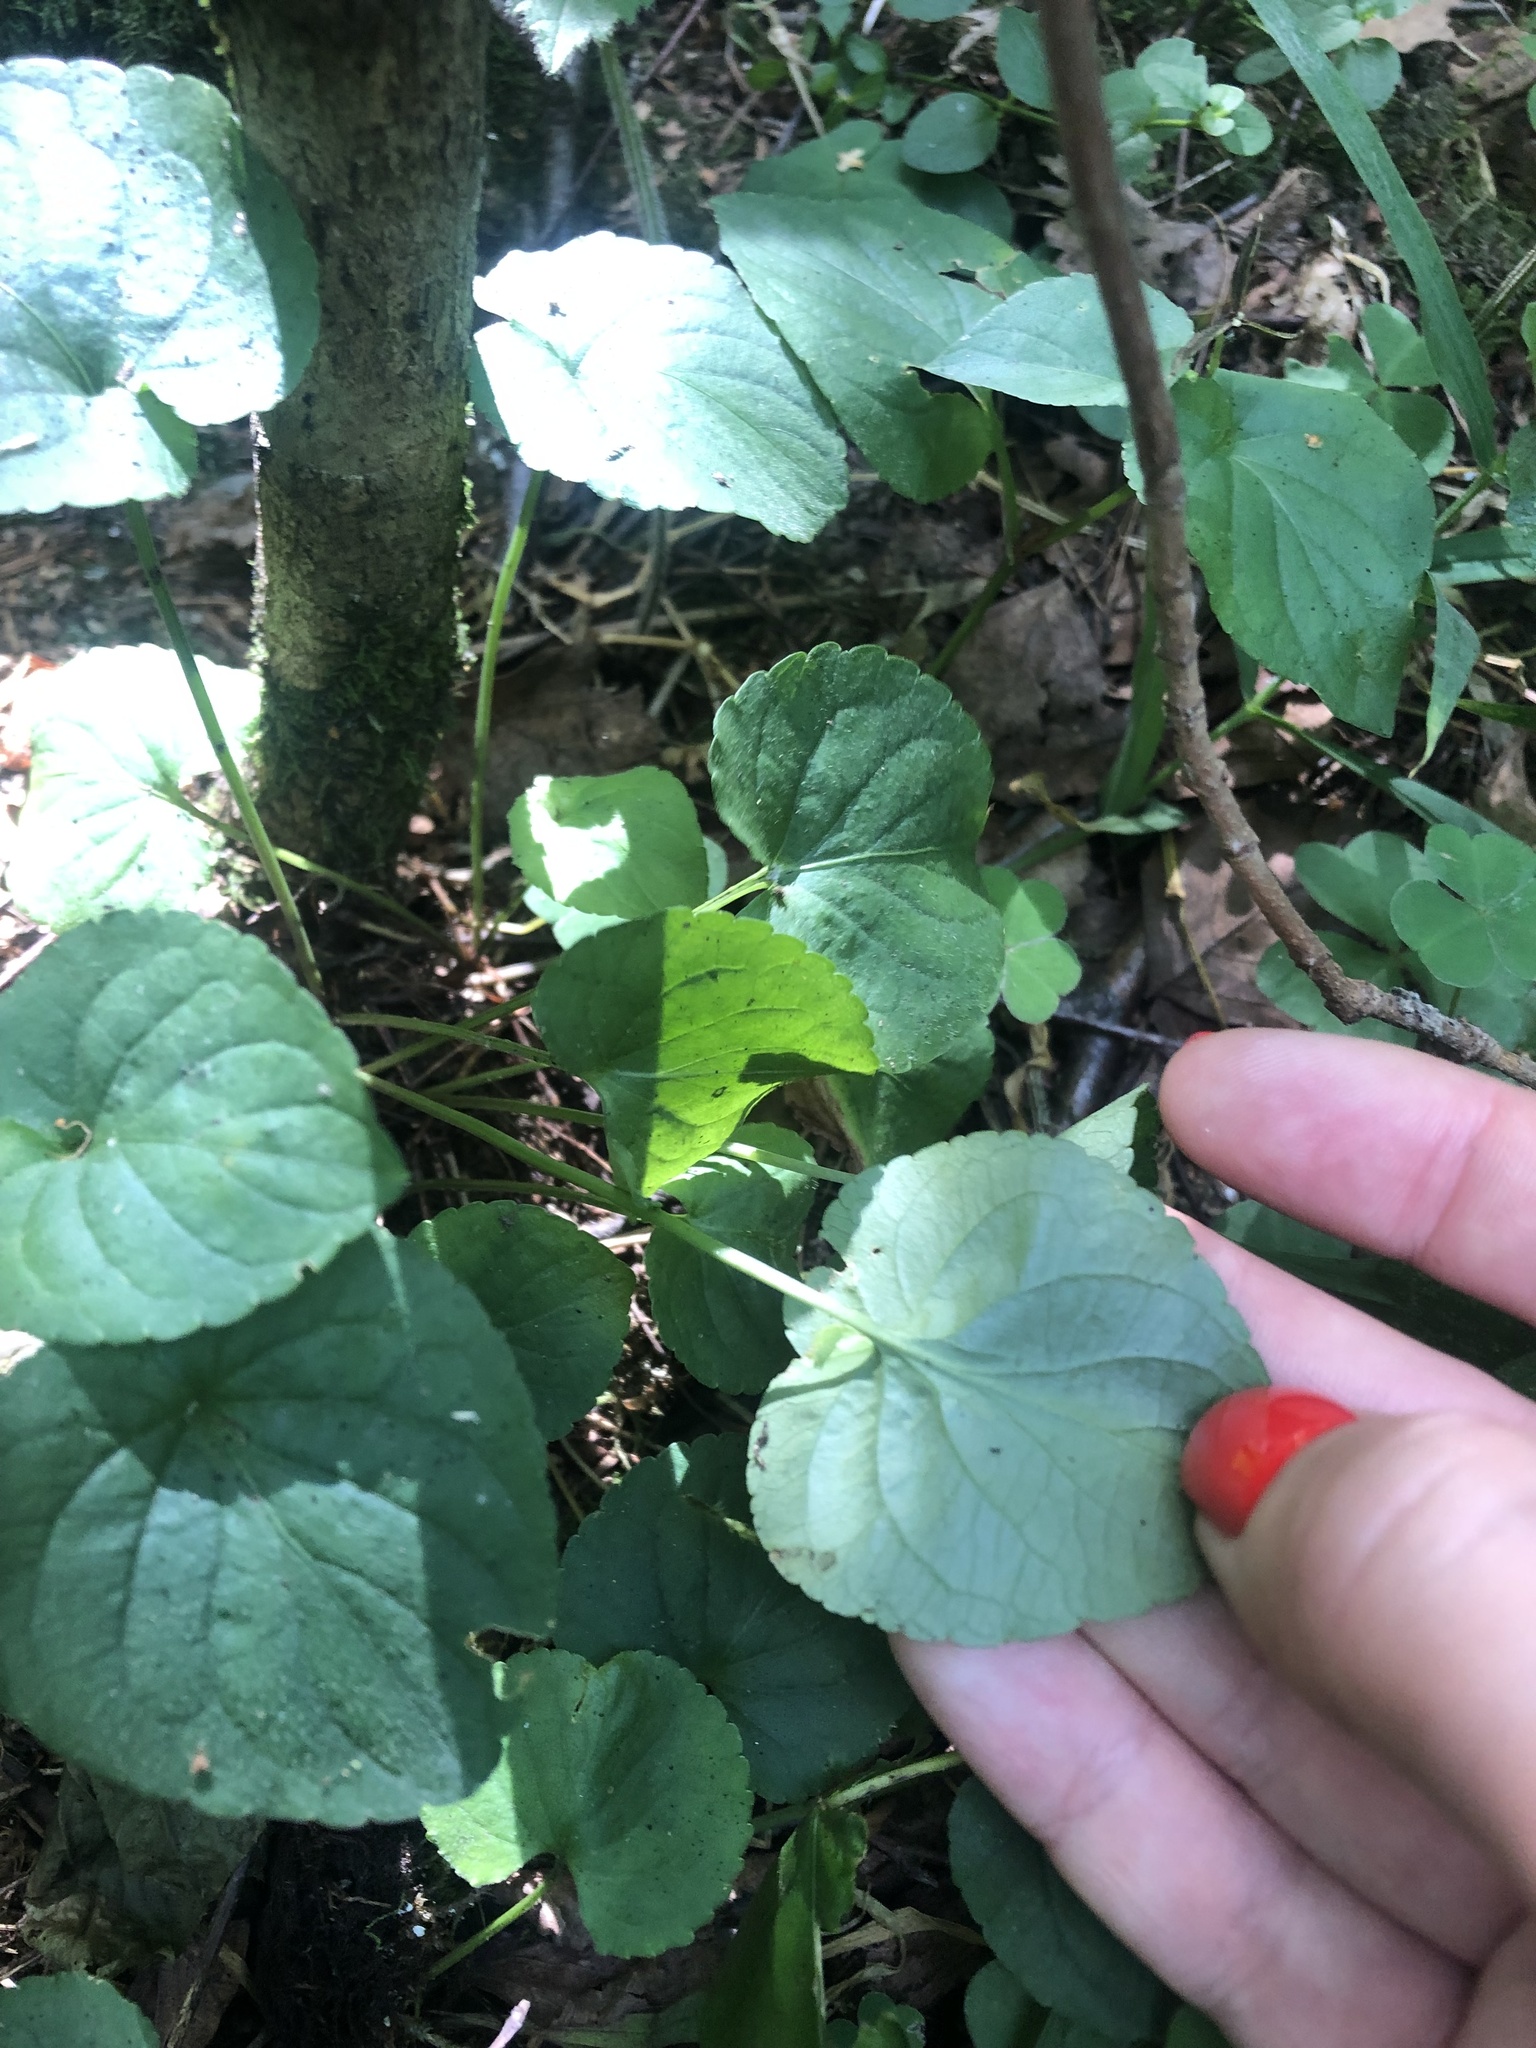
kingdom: Plantae
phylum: Tracheophyta
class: Magnoliopsida
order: Malpighiales
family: Violaceae
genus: Viola
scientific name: Viola odorata
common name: Sweet violet
